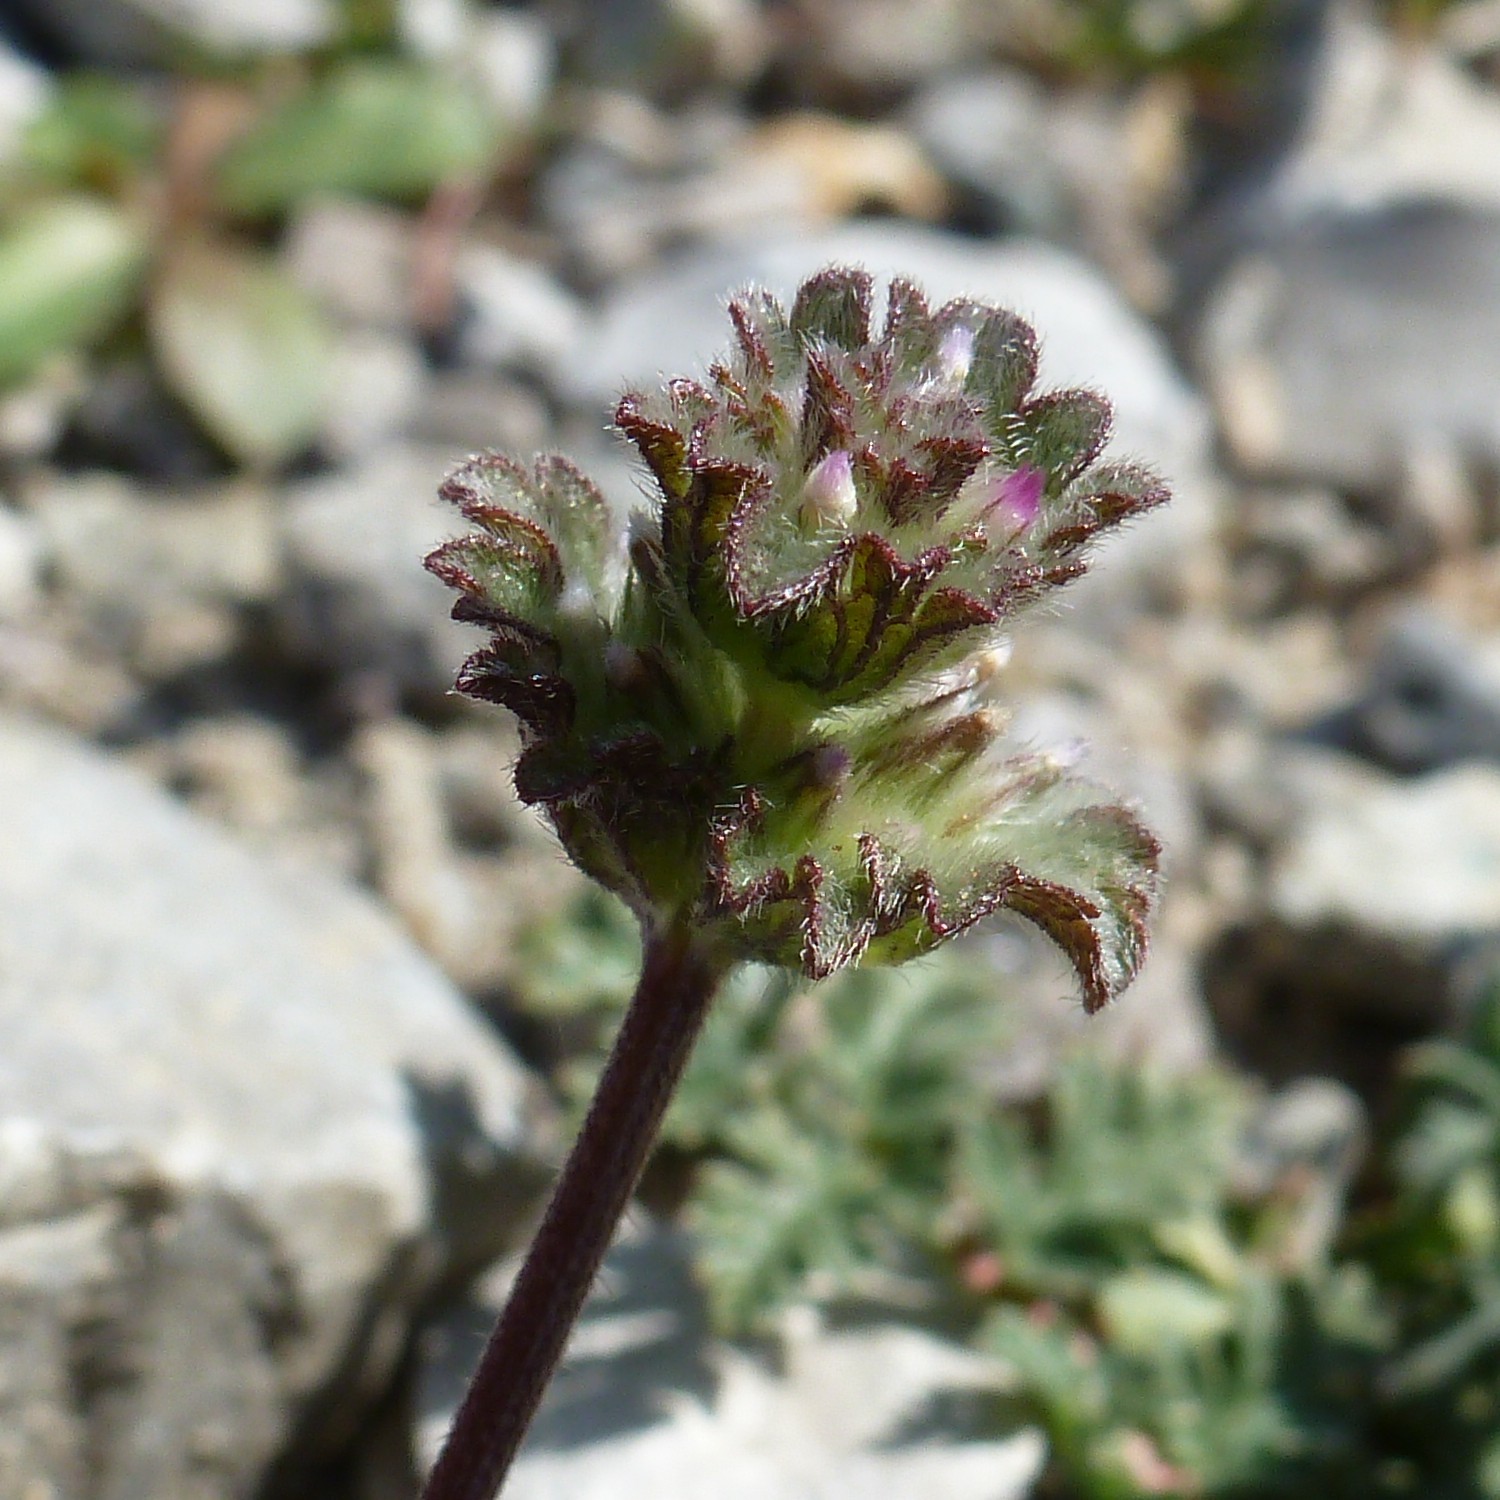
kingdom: Plantae
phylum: Tracheophyta
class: Magnoliopsida
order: Lamiales
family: Lamiaceae
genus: Lamium
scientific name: Lamium amplexicaule
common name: Henbit dead-nettle
